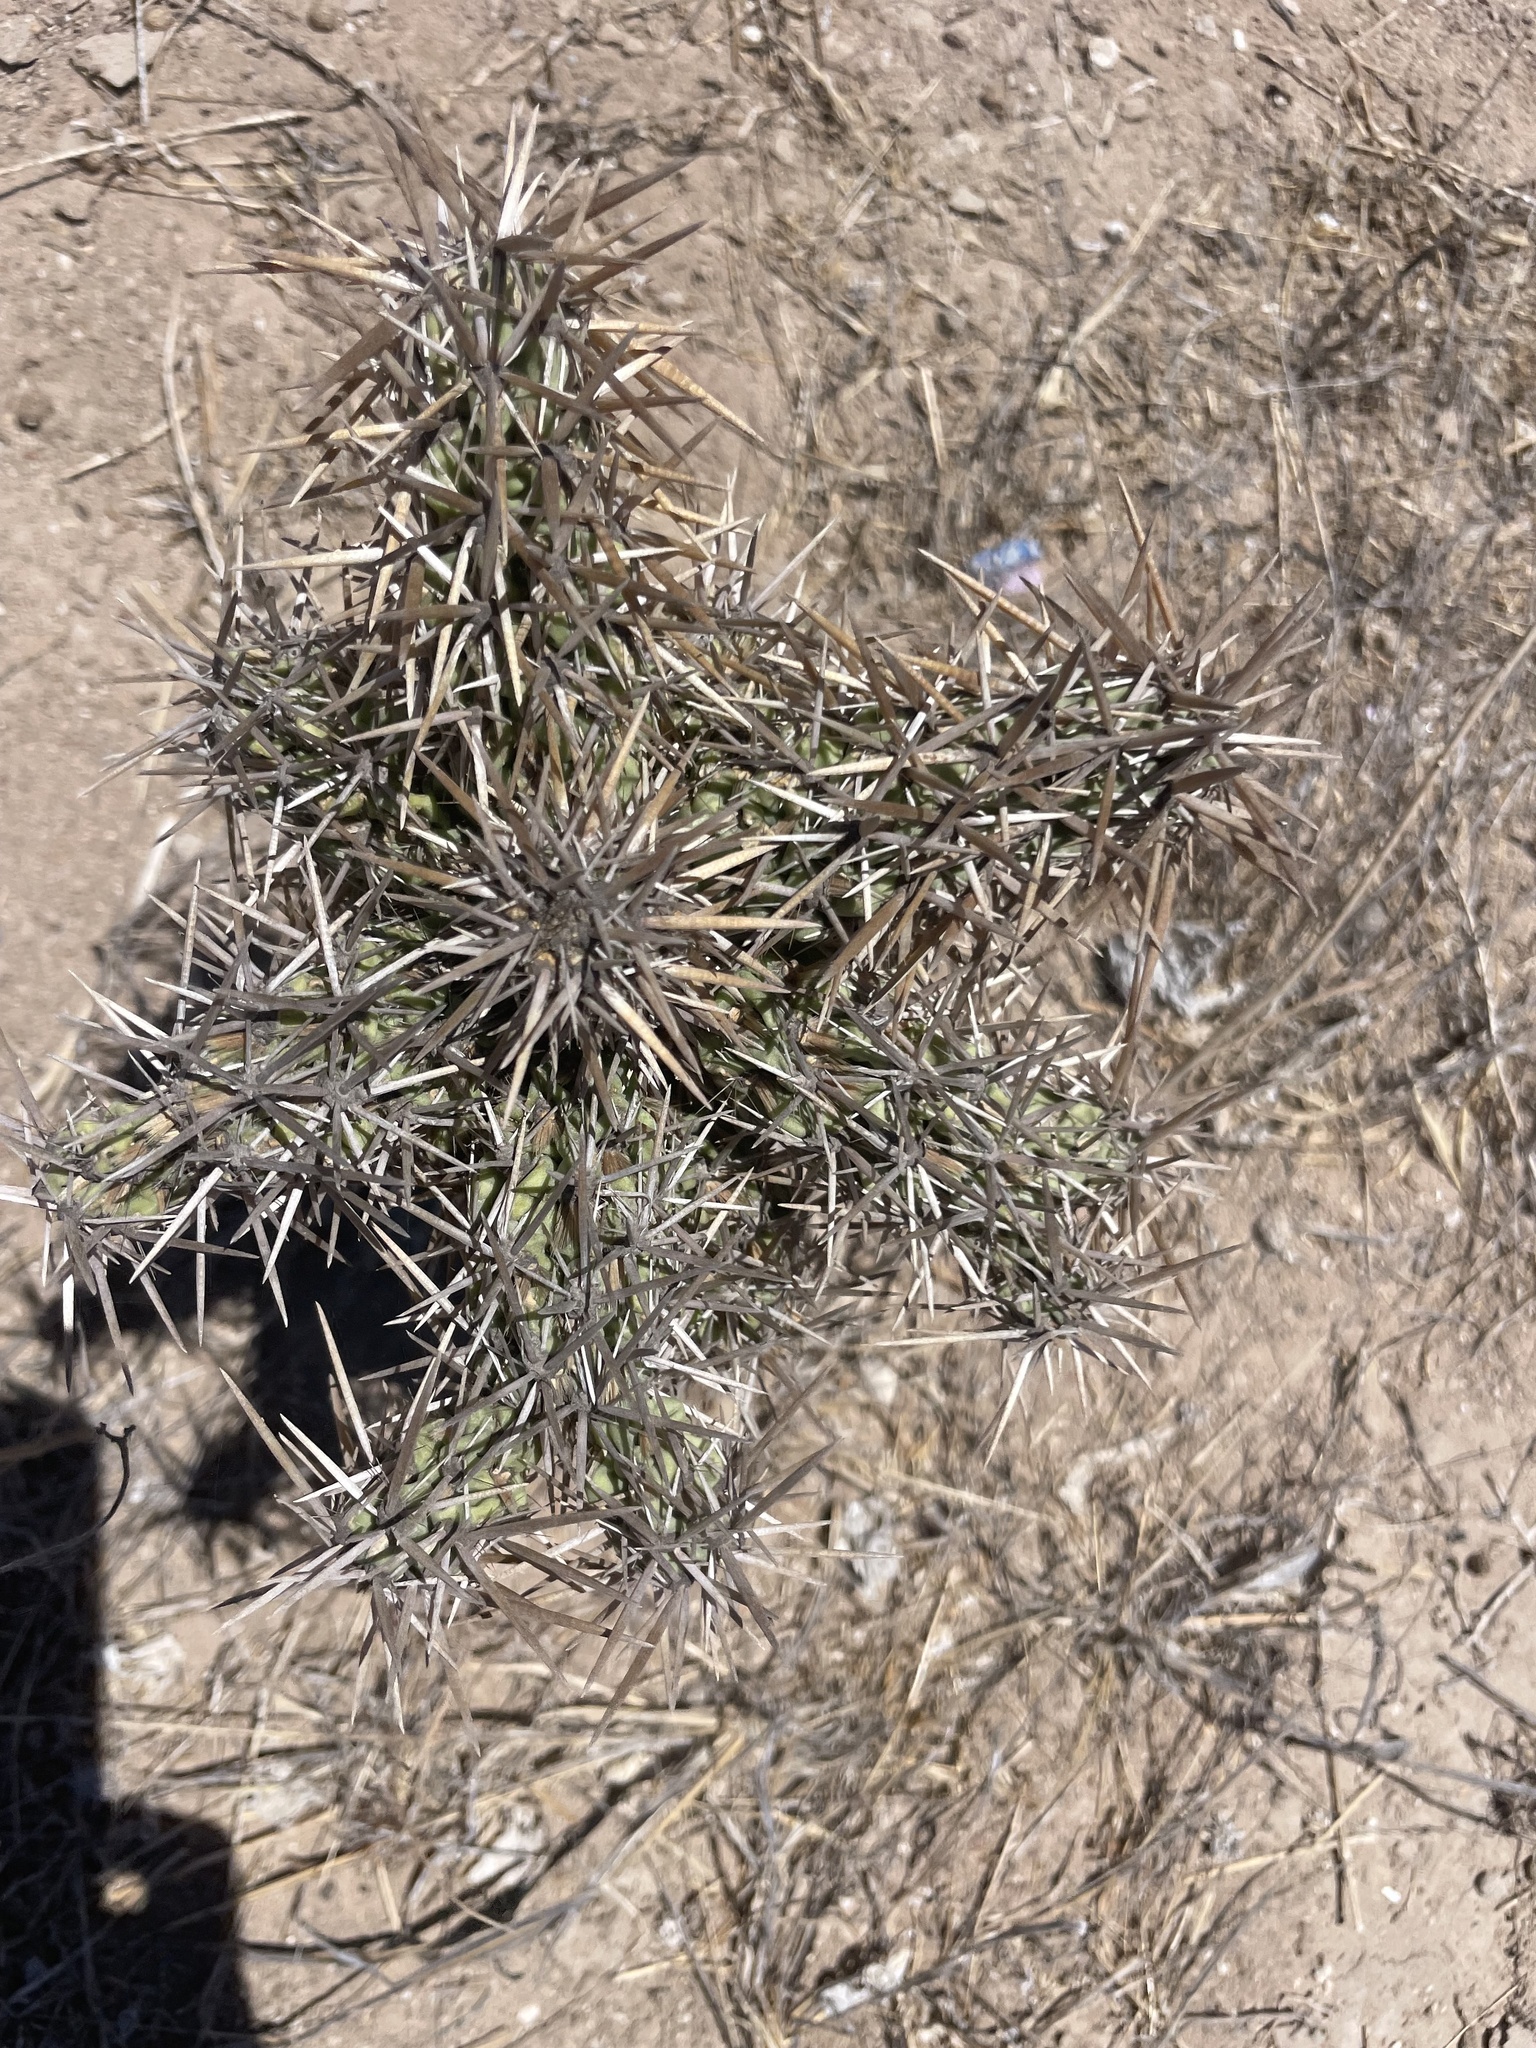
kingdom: Plantae
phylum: Tracheophyta
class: Magnoliopsida
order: Caryophyllales
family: Cactaceae
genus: Grusonia
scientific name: Grusonia invicta
